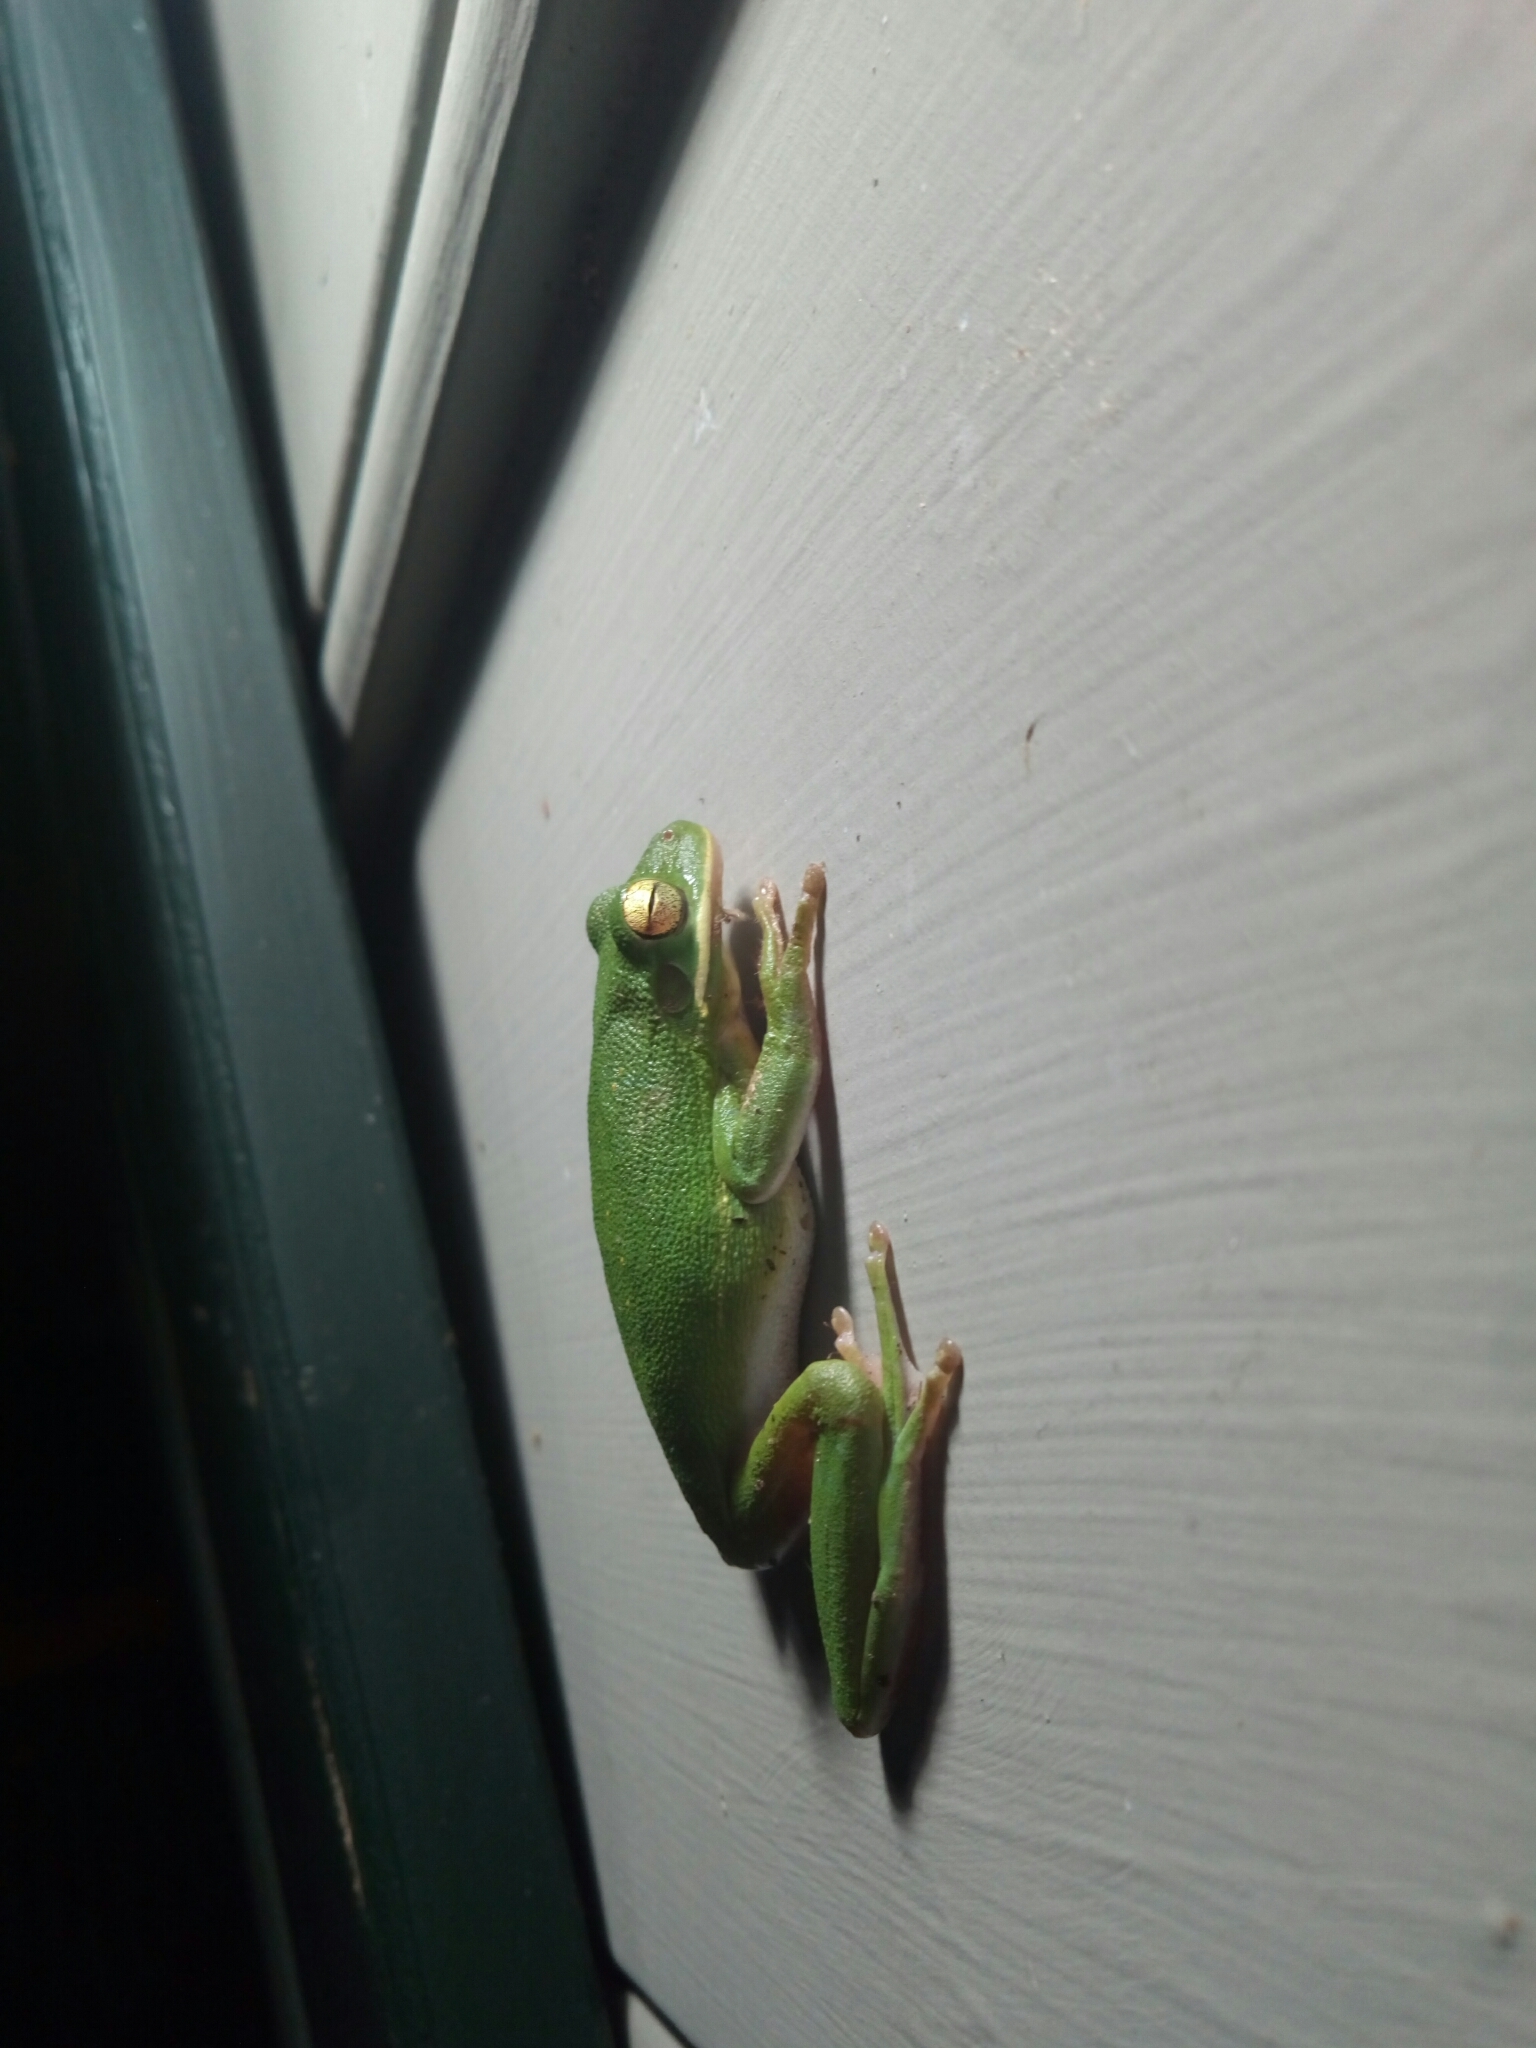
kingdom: Animalia
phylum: Chordata
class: Amphibia
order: Anura
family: Hylidae
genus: Dryophytes
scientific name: Dryophytes cinereus
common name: Green treefrog
